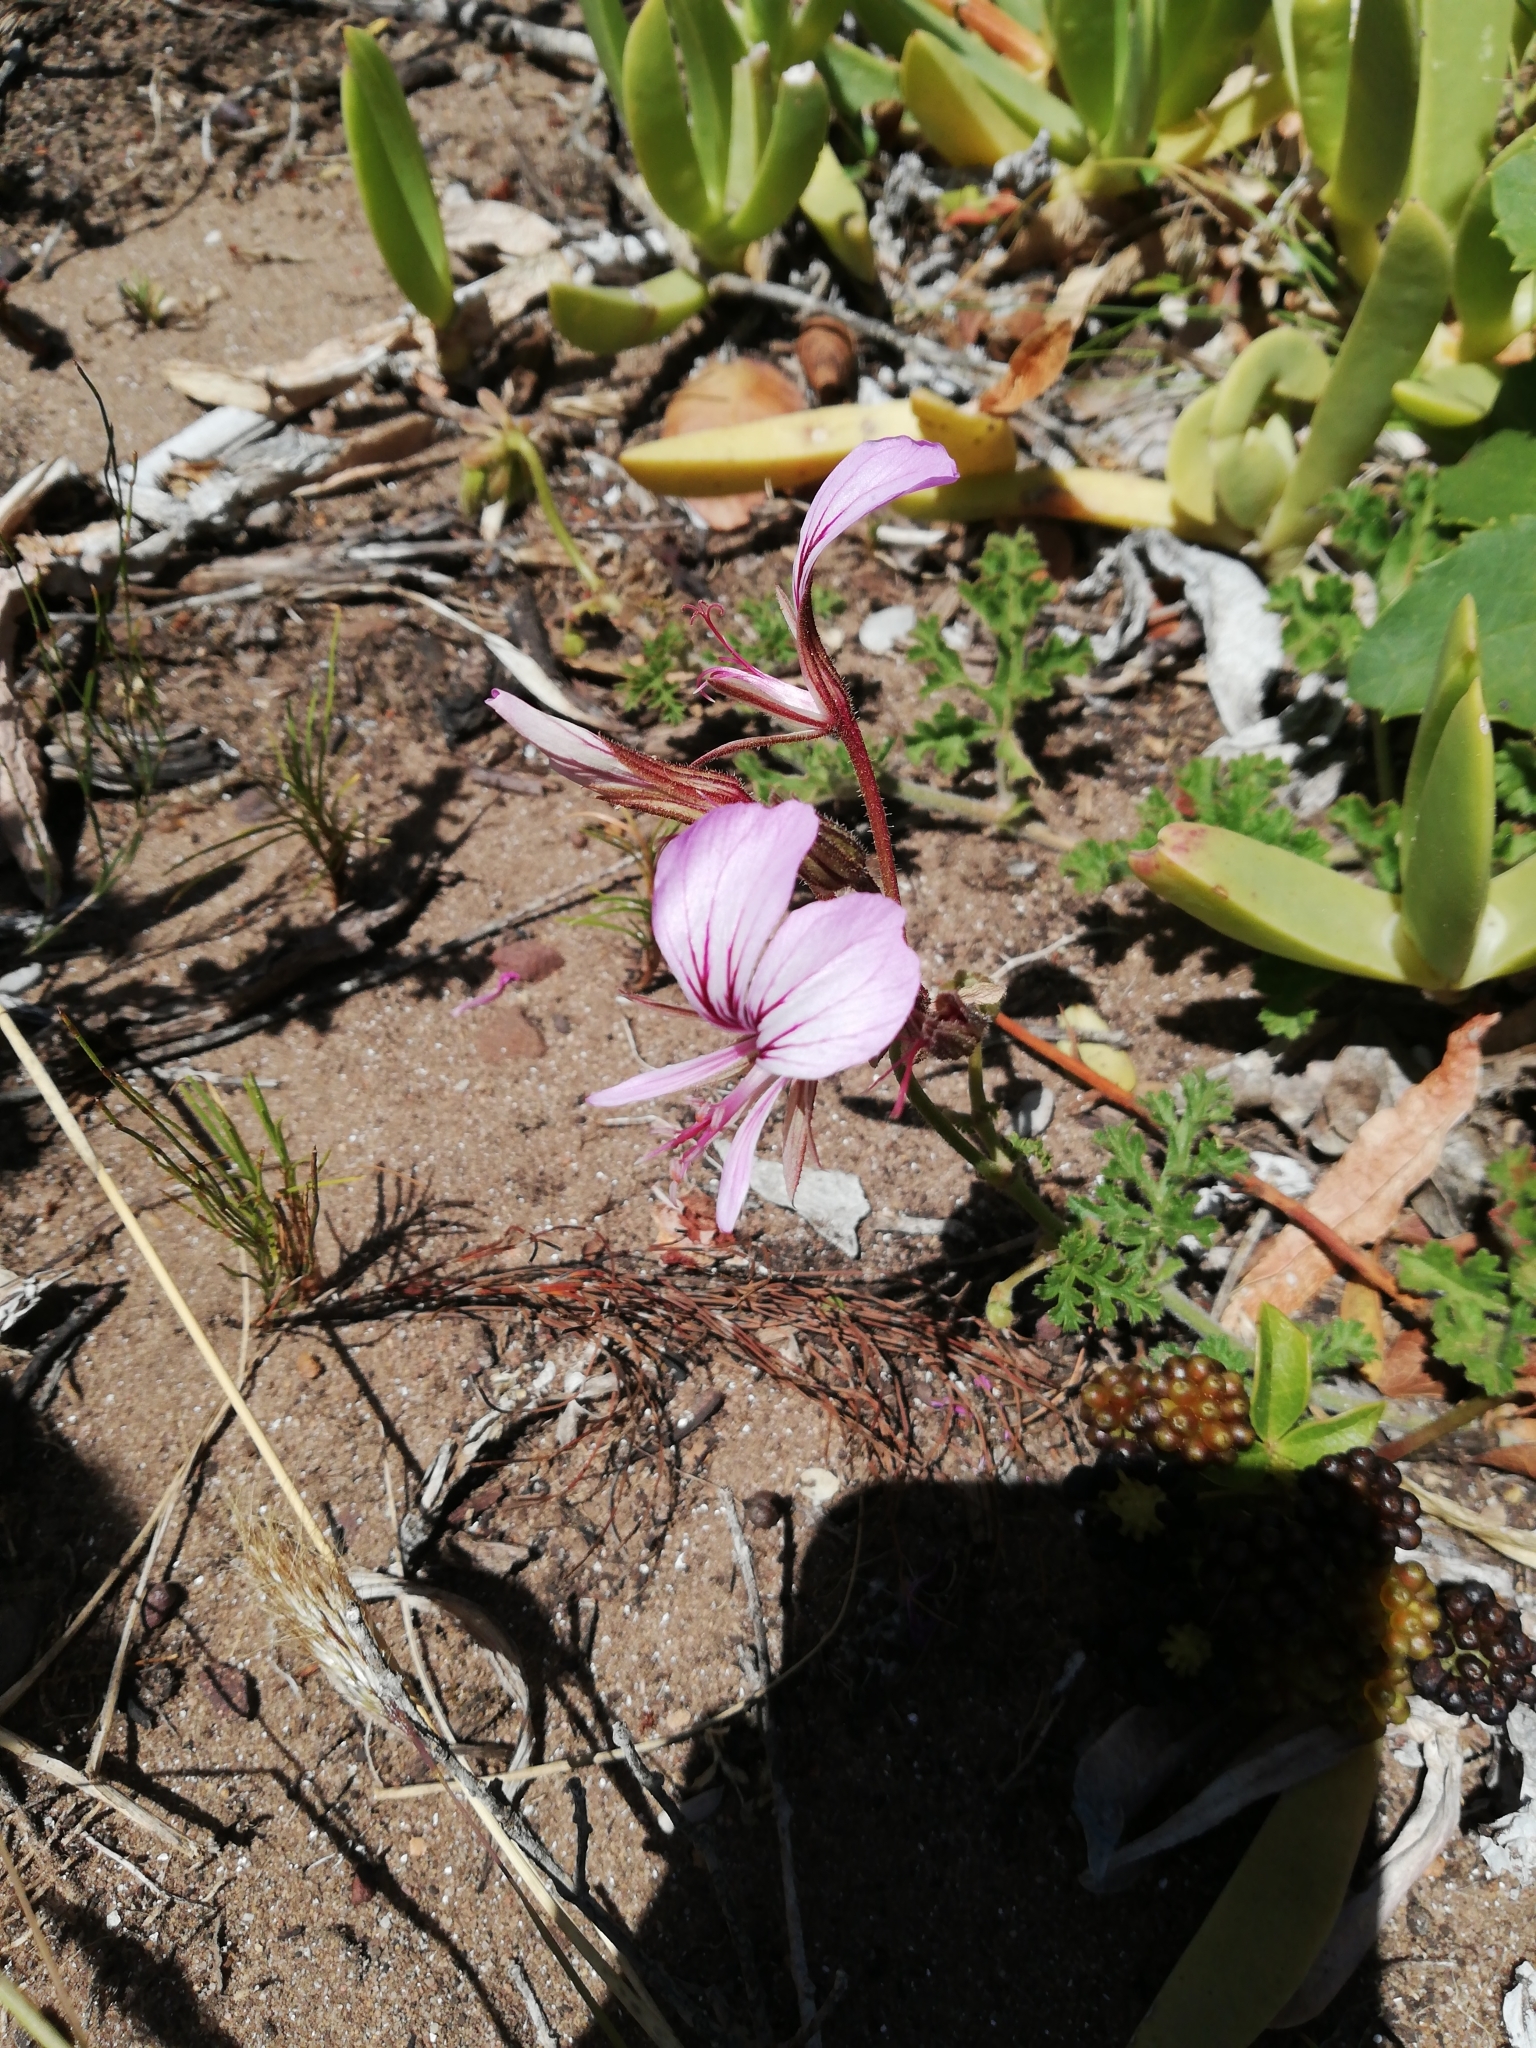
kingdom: Plantae
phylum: Tracheophyta
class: Magnoliopsida
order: Geraniales
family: Geraniaceae
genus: Pelargonium
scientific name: Pelargonium longicaule
